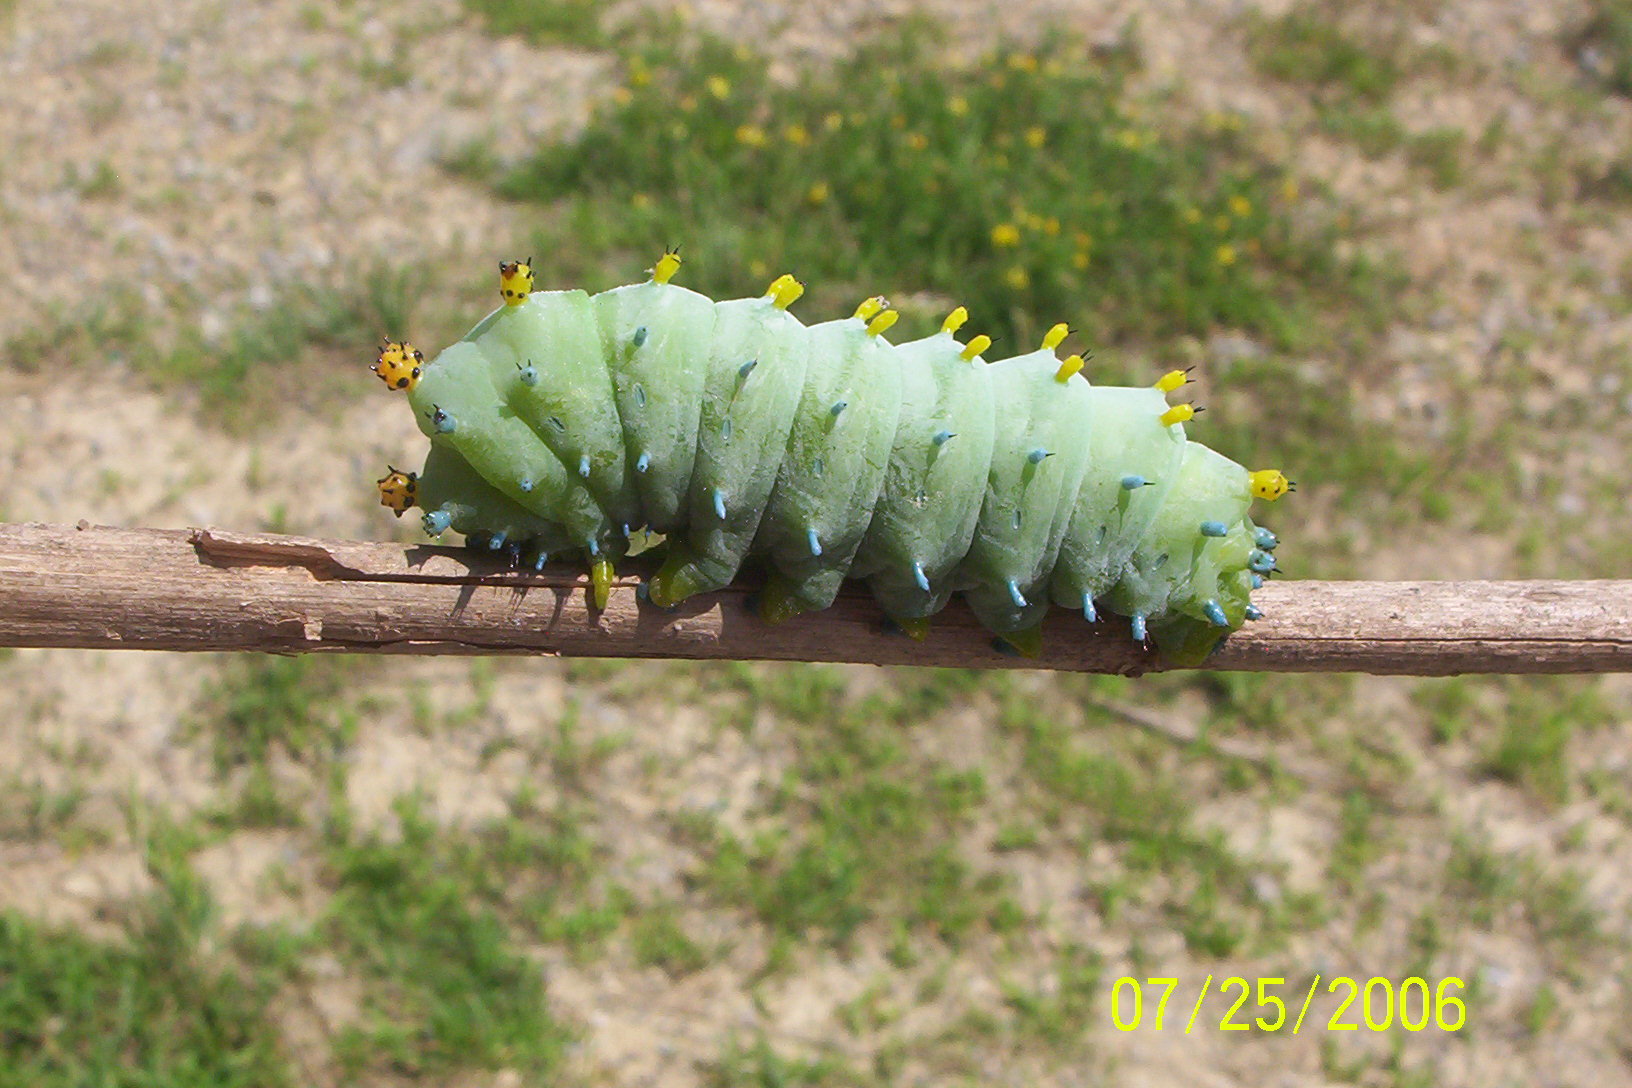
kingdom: Animalia
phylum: Arthropoda
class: Insecta
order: Lepidoptera
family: Saturniidae
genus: Hyalophora
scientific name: Hyalophora cecropia
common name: Cecropia silkmoth
